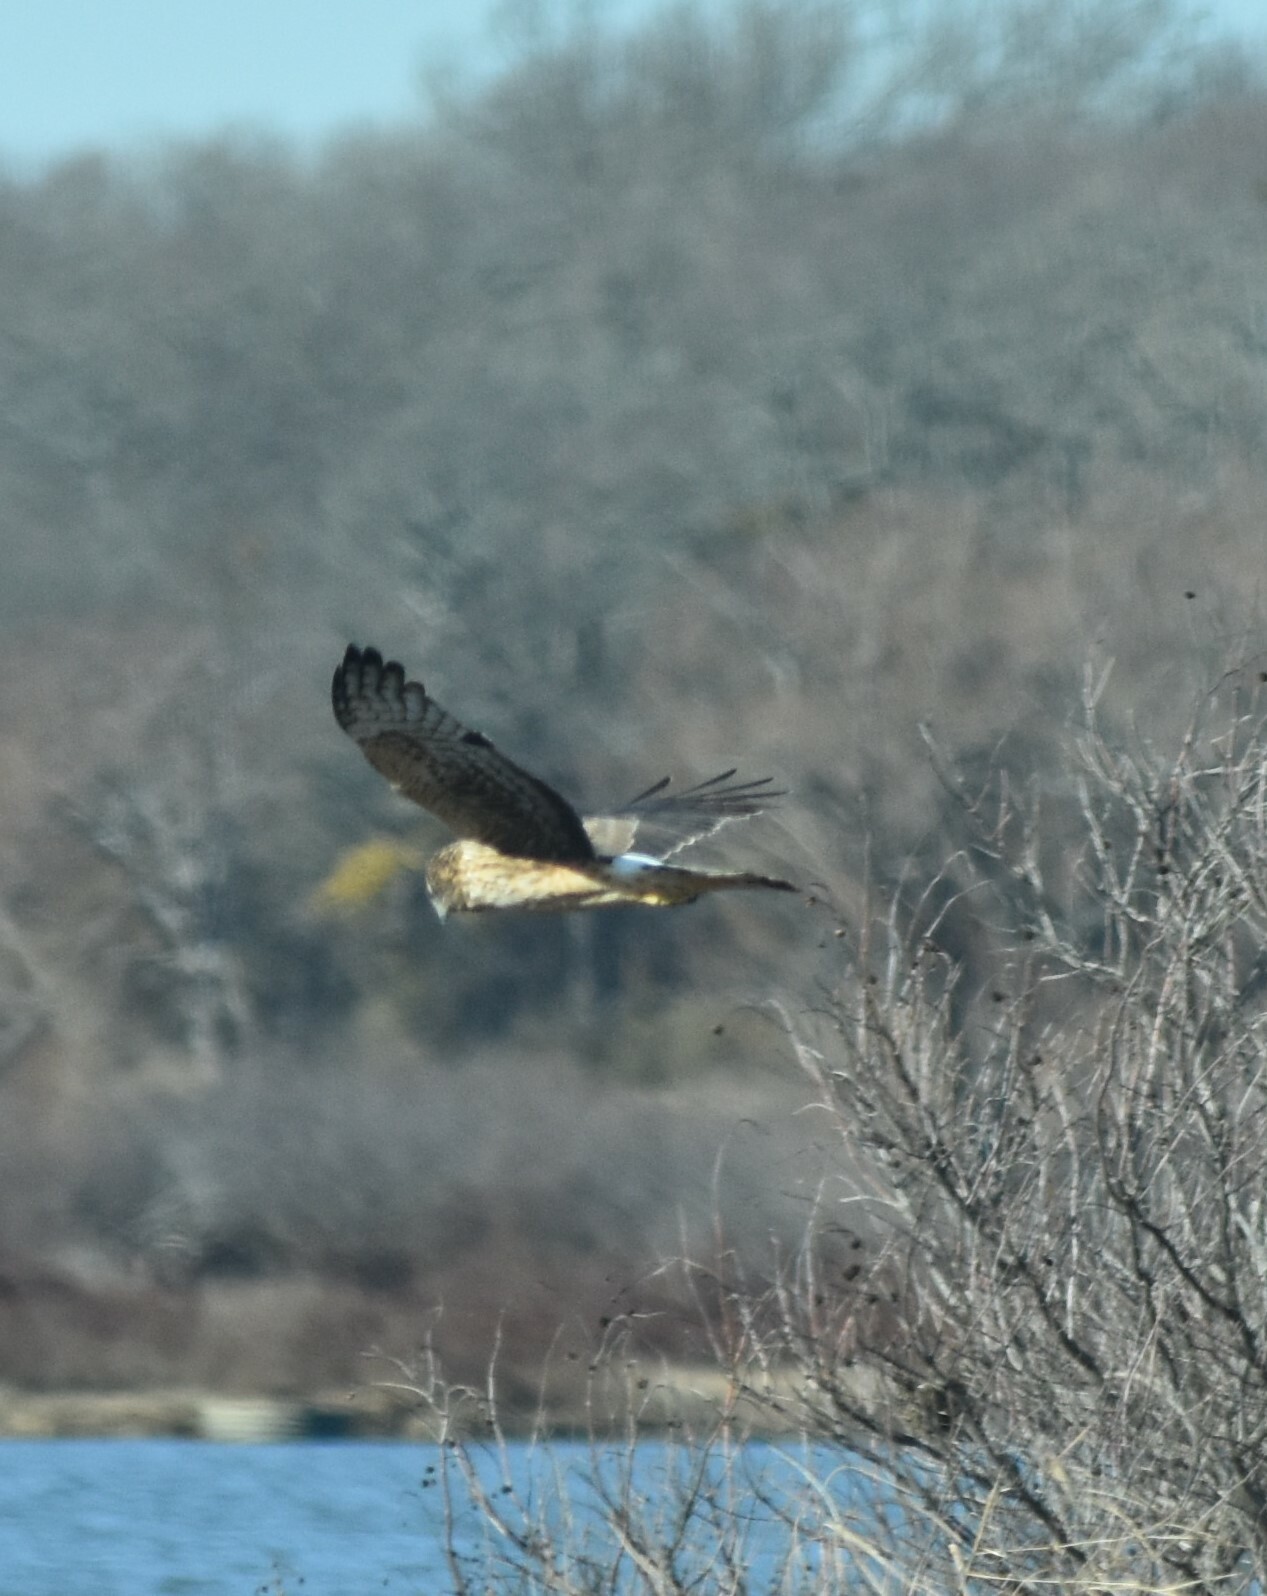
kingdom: Animalia
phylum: Chordata
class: Aves
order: Accipitriformes
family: Accipitridae
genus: Circus
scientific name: Circus cyaneus
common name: Hen harrier
